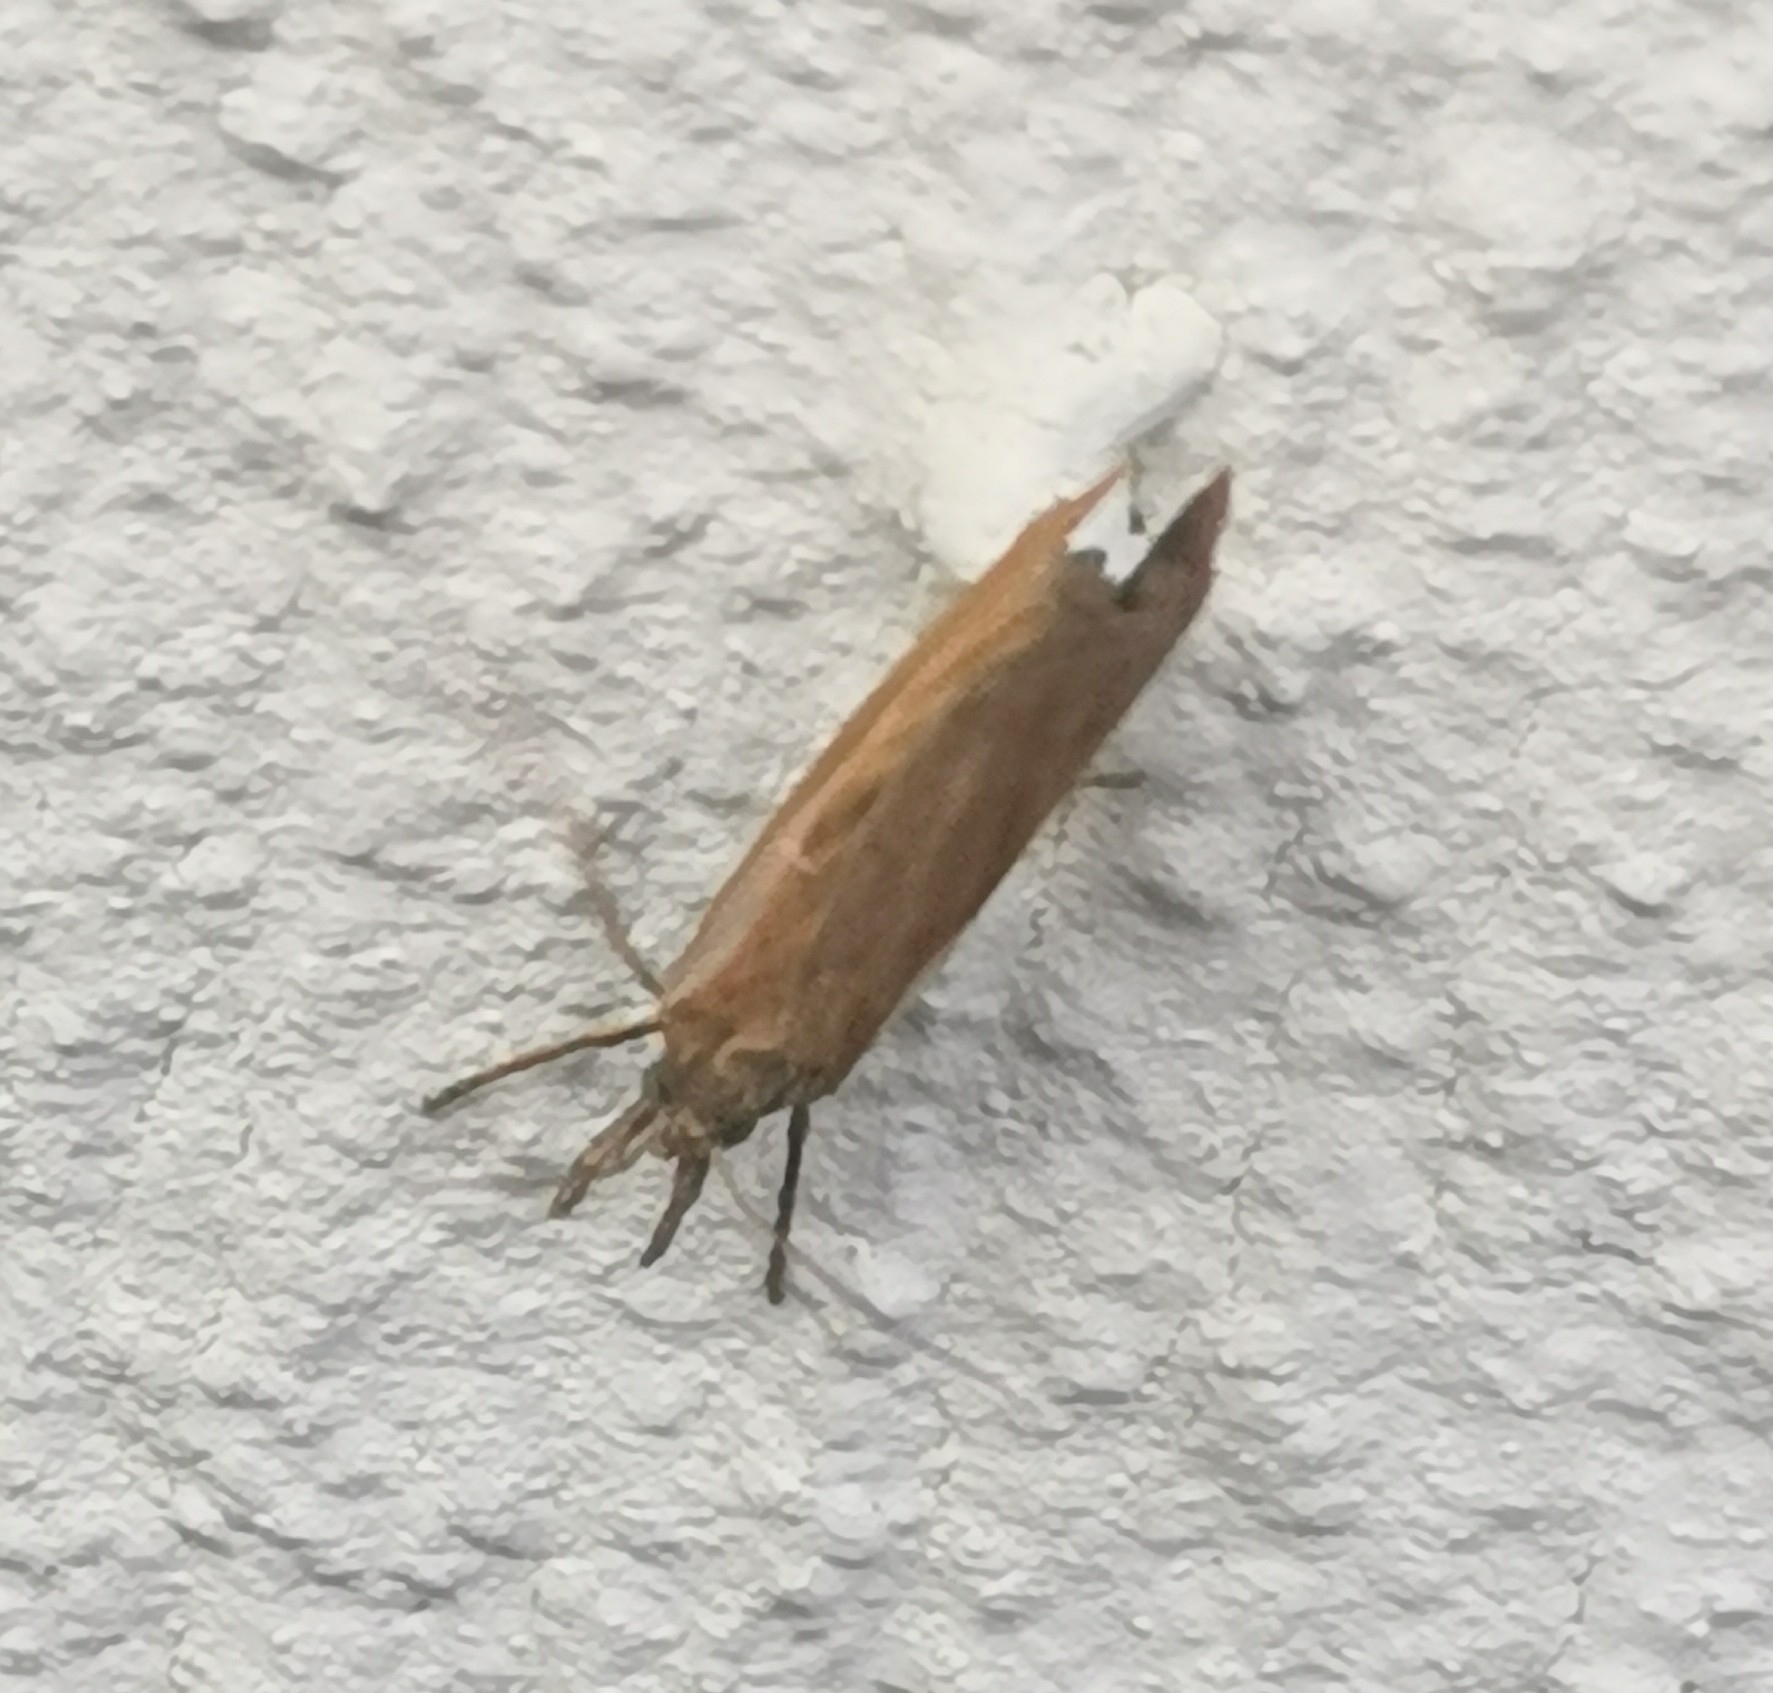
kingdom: Animalia
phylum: Arthropoda
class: Insecta
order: Lepidoptera
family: Crambidae
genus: Agriphila
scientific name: Agriphila tristellus
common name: Common grass-veneer
